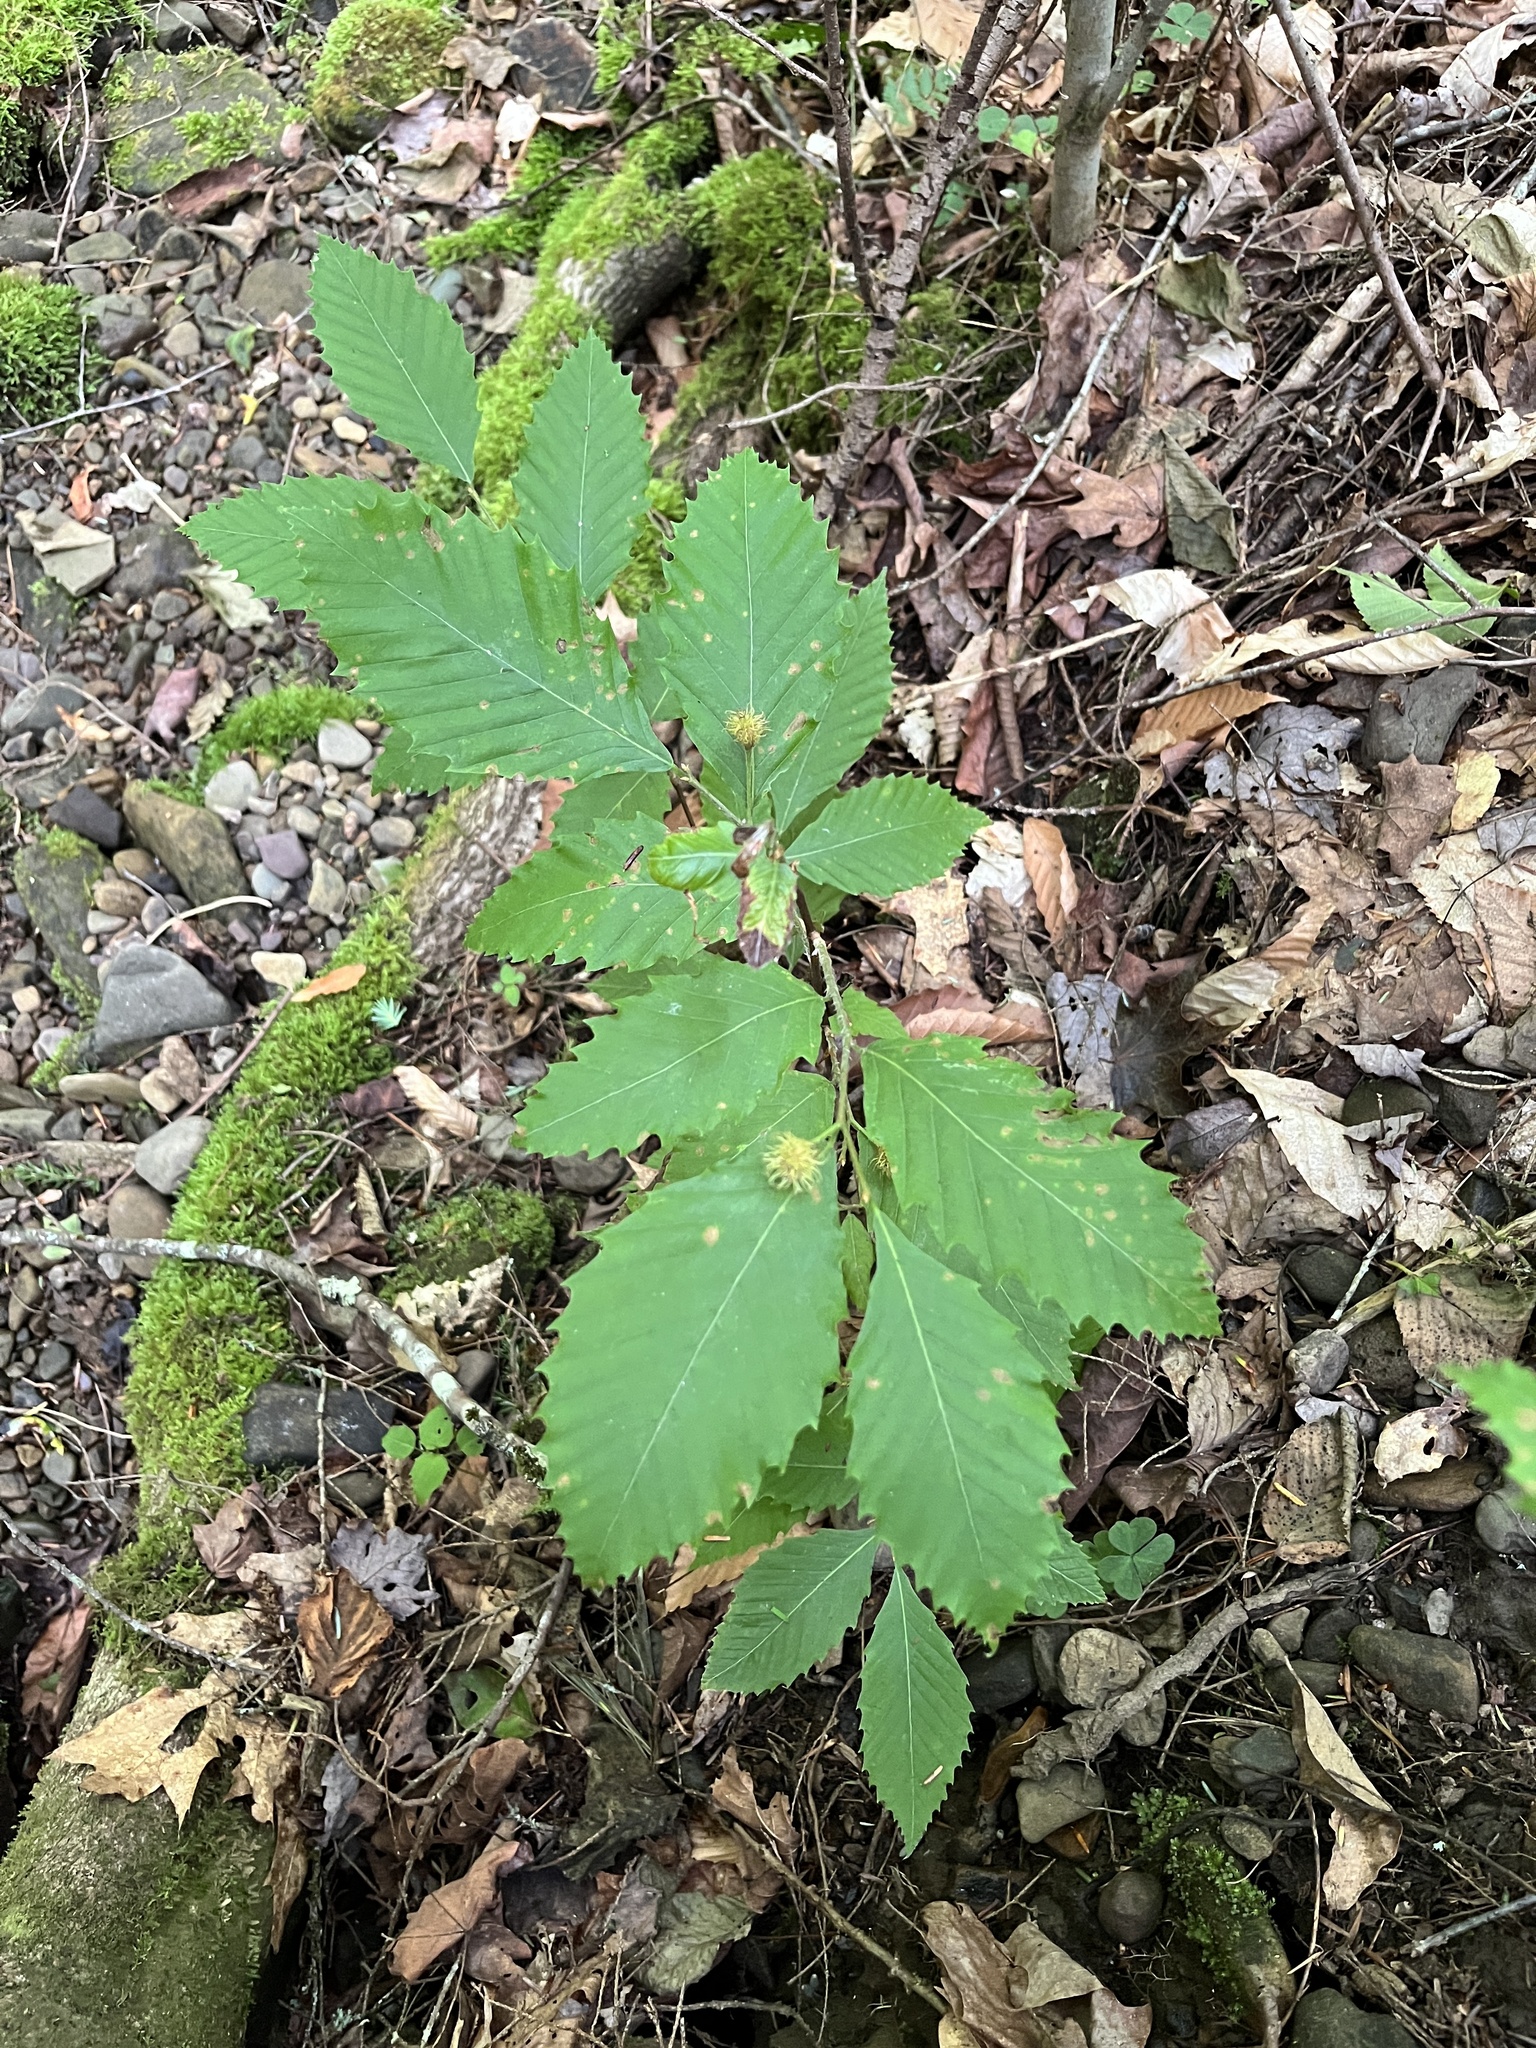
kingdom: Plantae
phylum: Tracheophyta
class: Magnoliopsida
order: Fagales
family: Fagaceae
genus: Fagus
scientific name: Fagus grandifolia
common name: American beech
